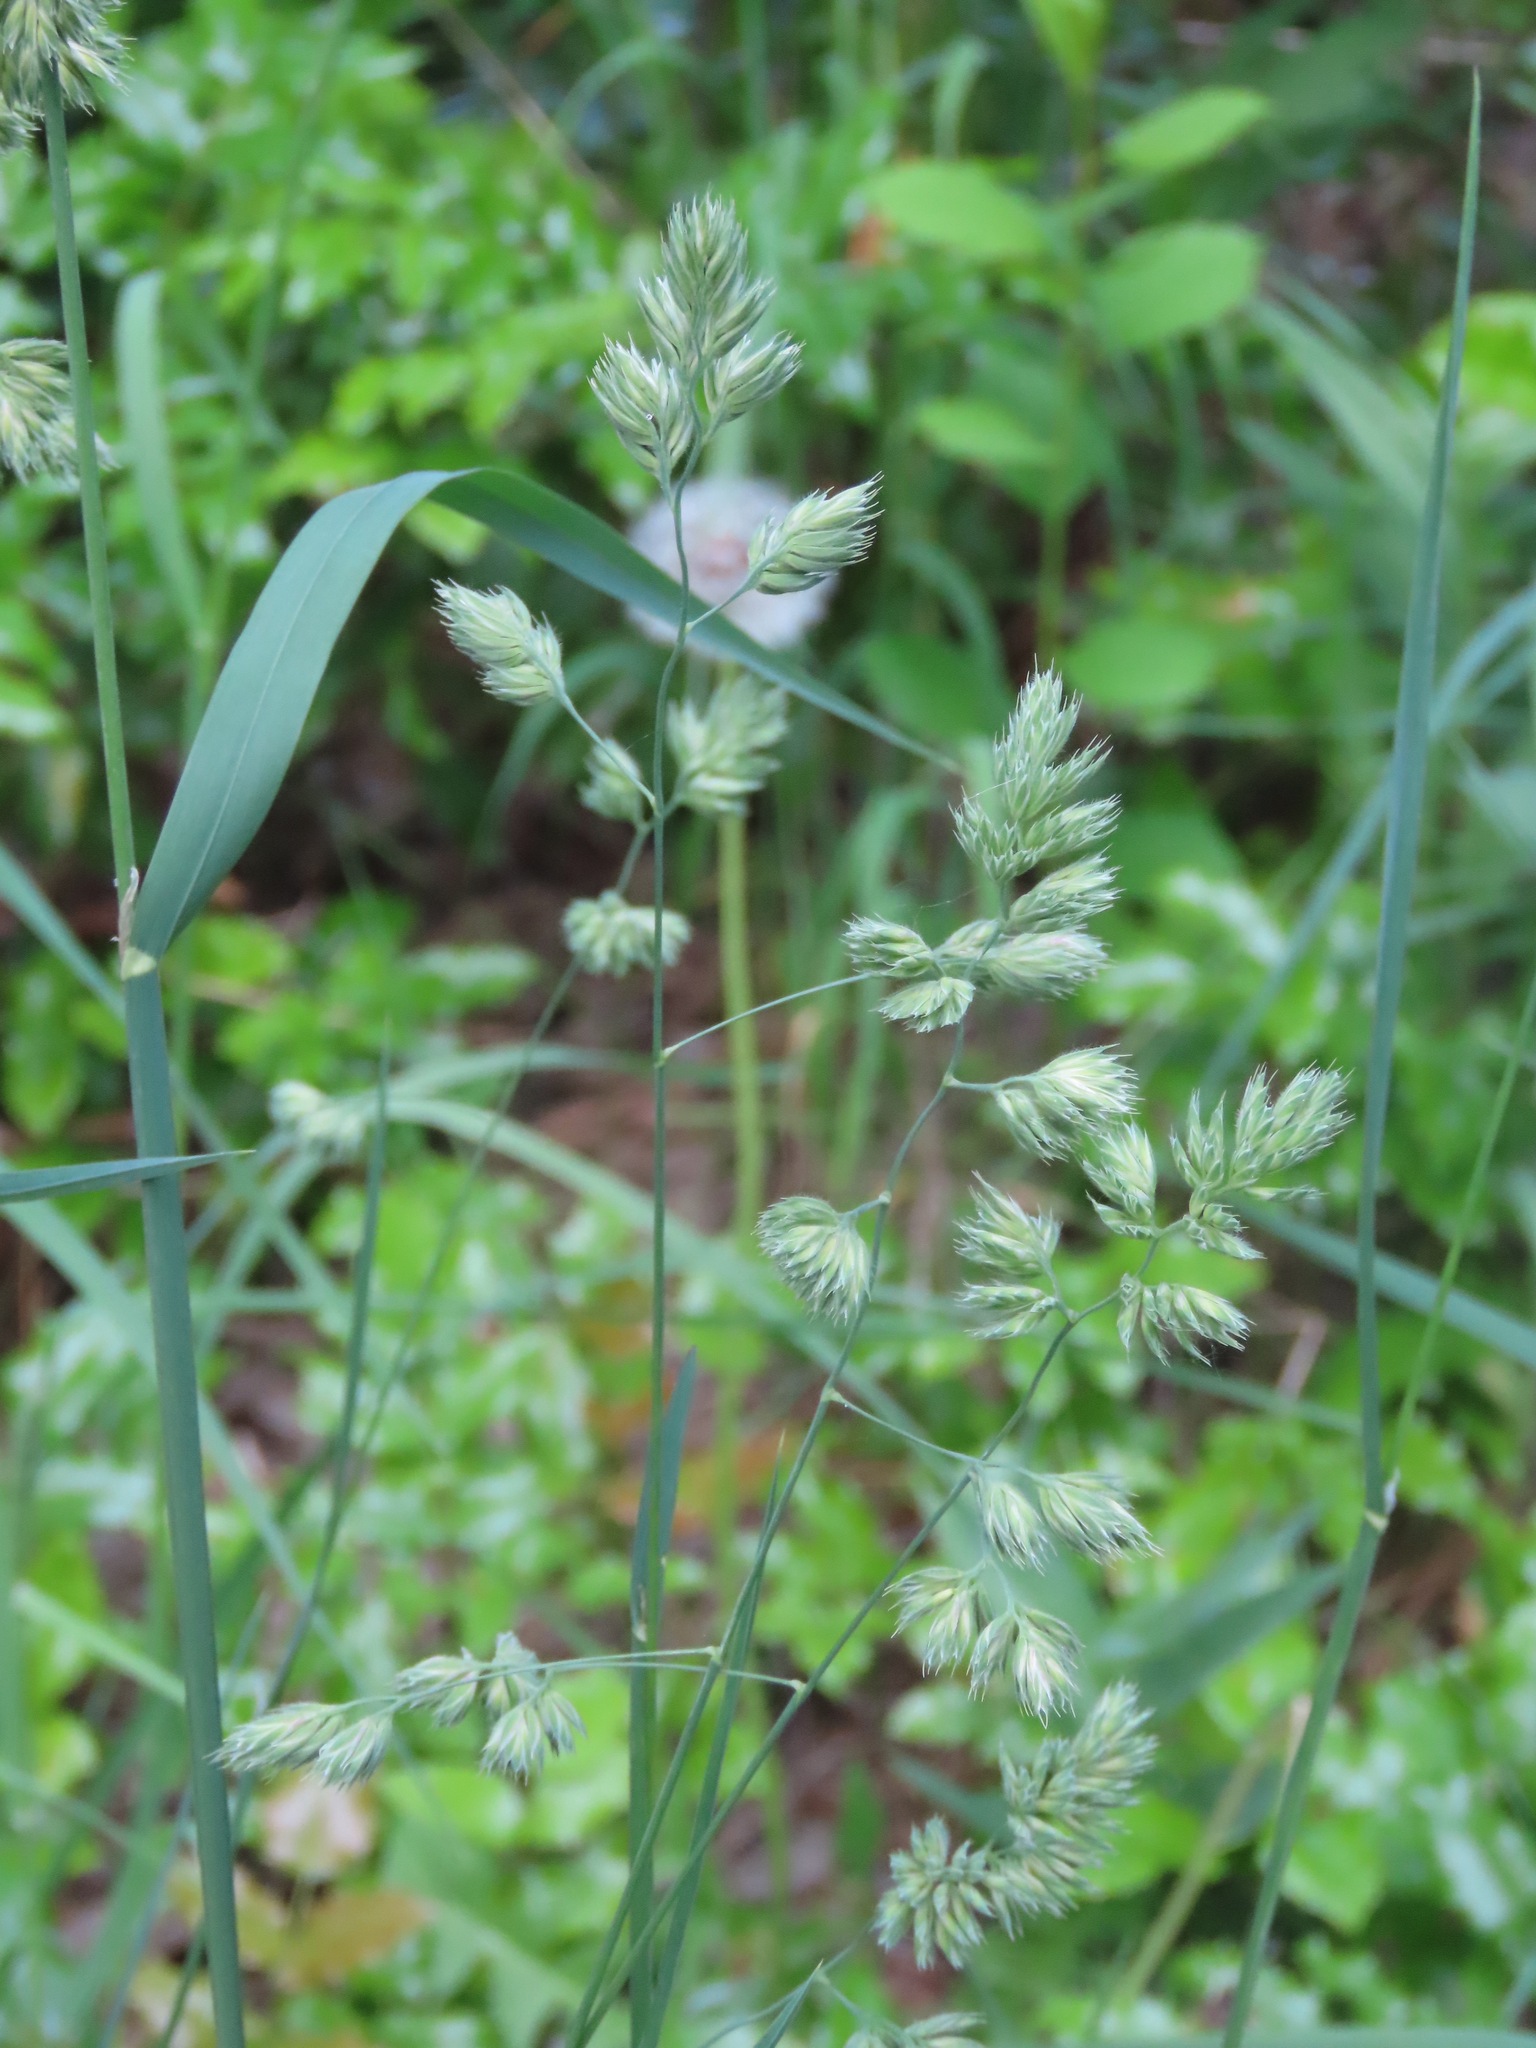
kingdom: Plantae
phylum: Tracheophyta
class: Liliopsida
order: Poales
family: Poaceae
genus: Dactylis
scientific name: Dactylis glomerata
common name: Orchardgrass
